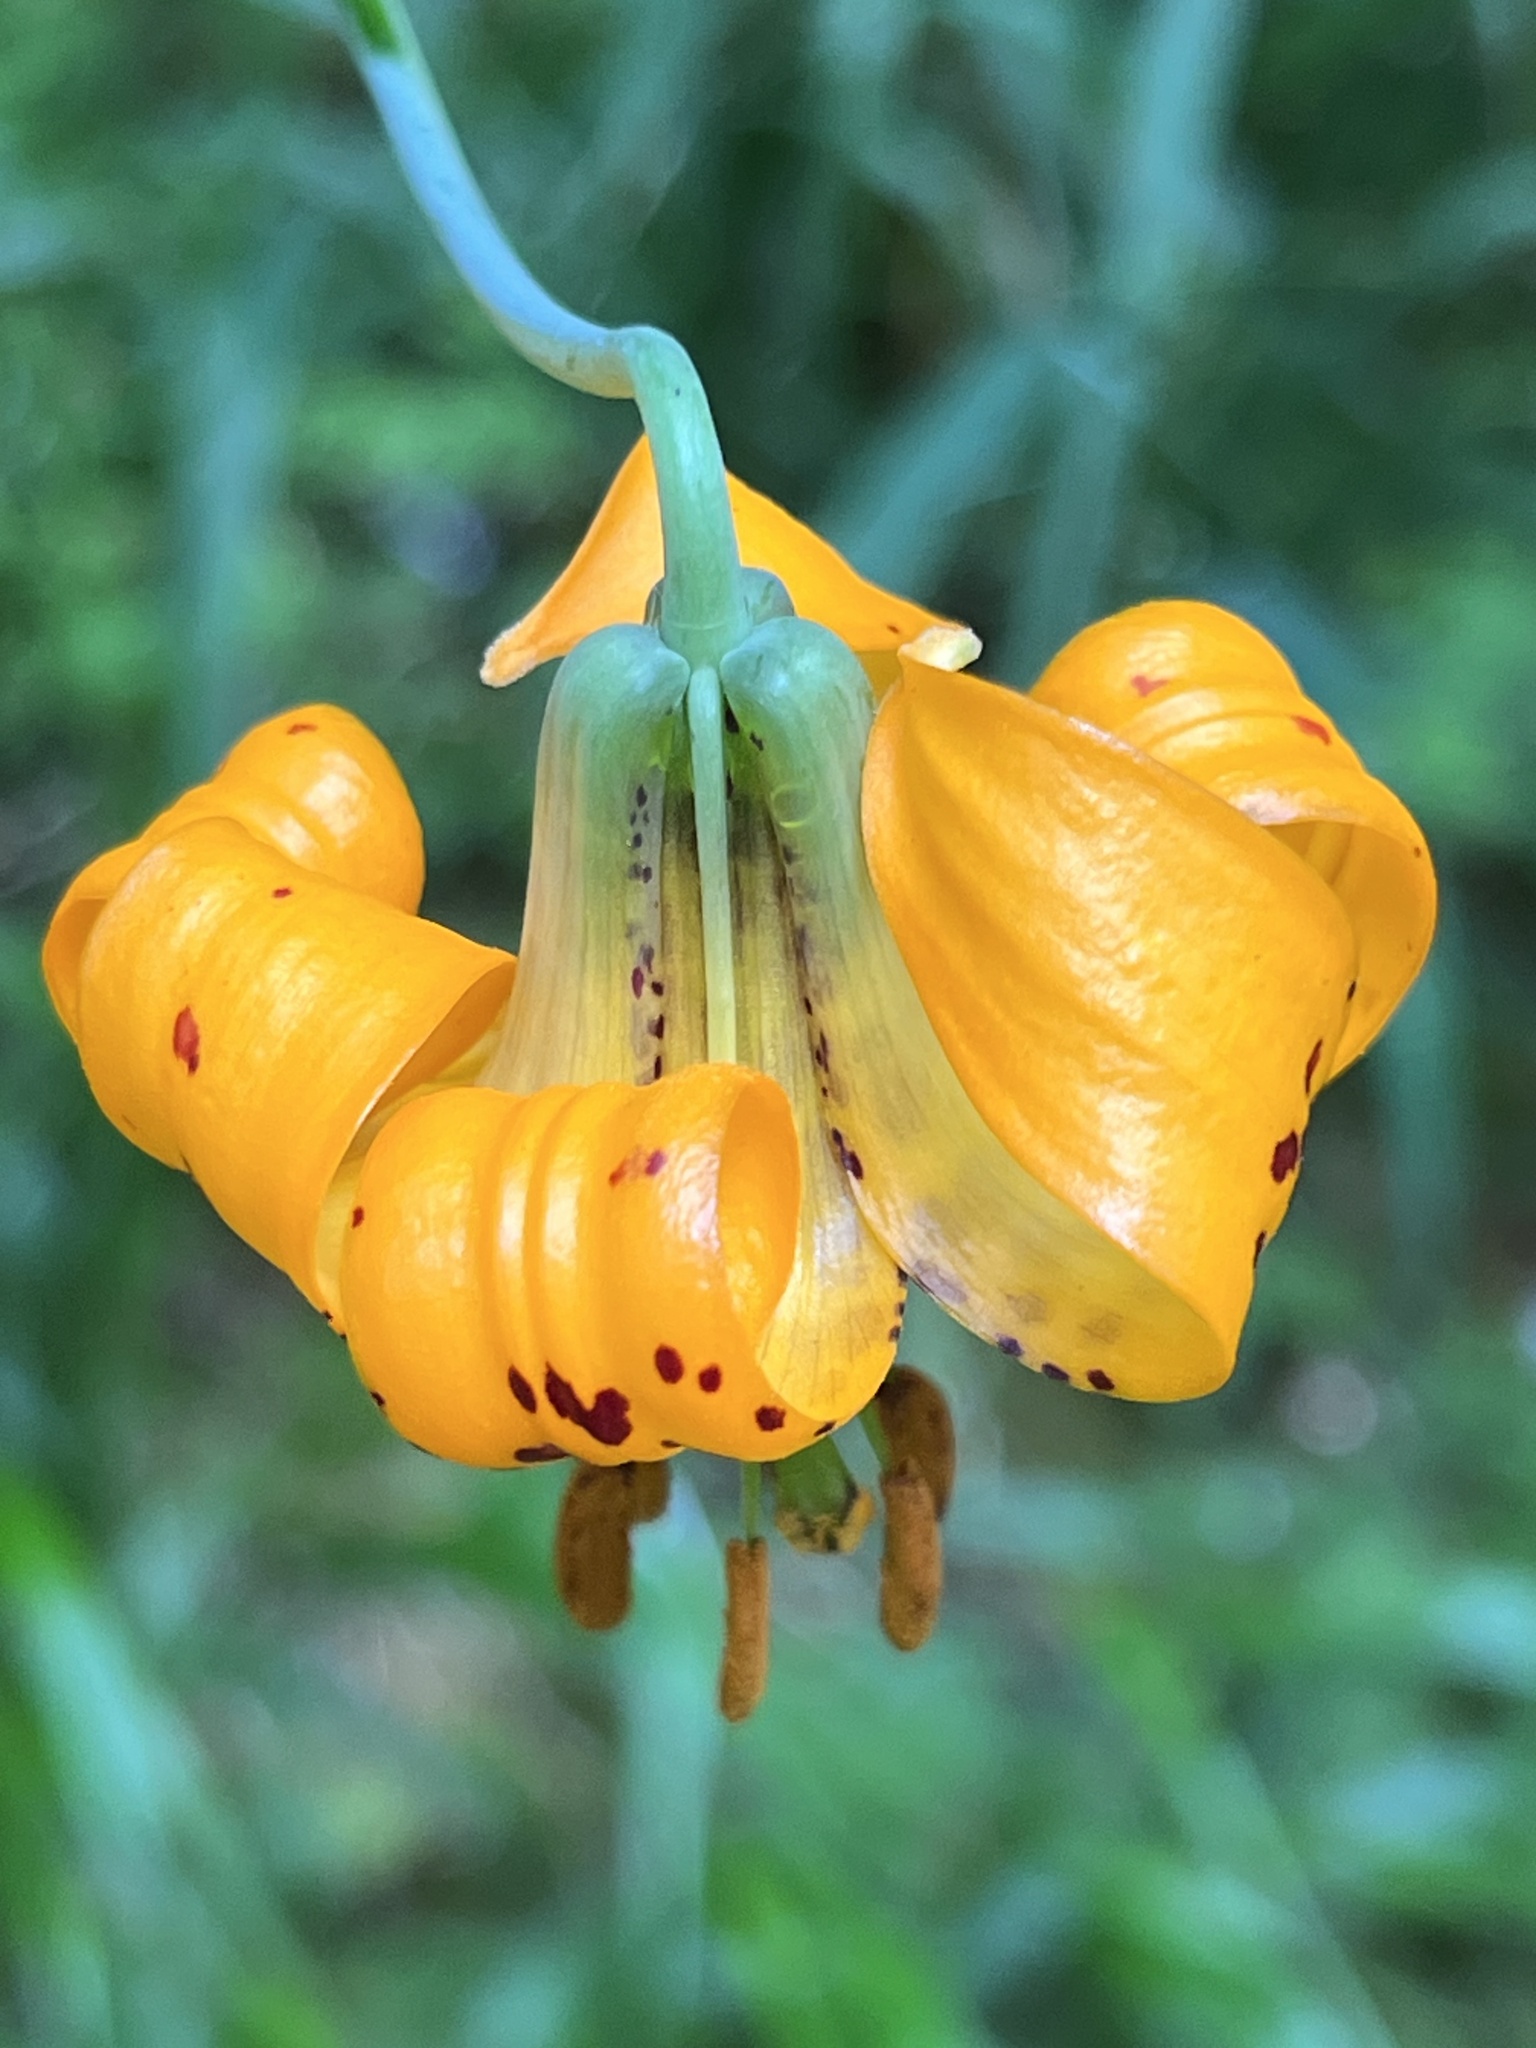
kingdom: Plantae
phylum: Tracheophyta
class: Liliopsida
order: Liliales
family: Liliaceae
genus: Lilium
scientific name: Lilium columbianum
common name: Columbia lily
